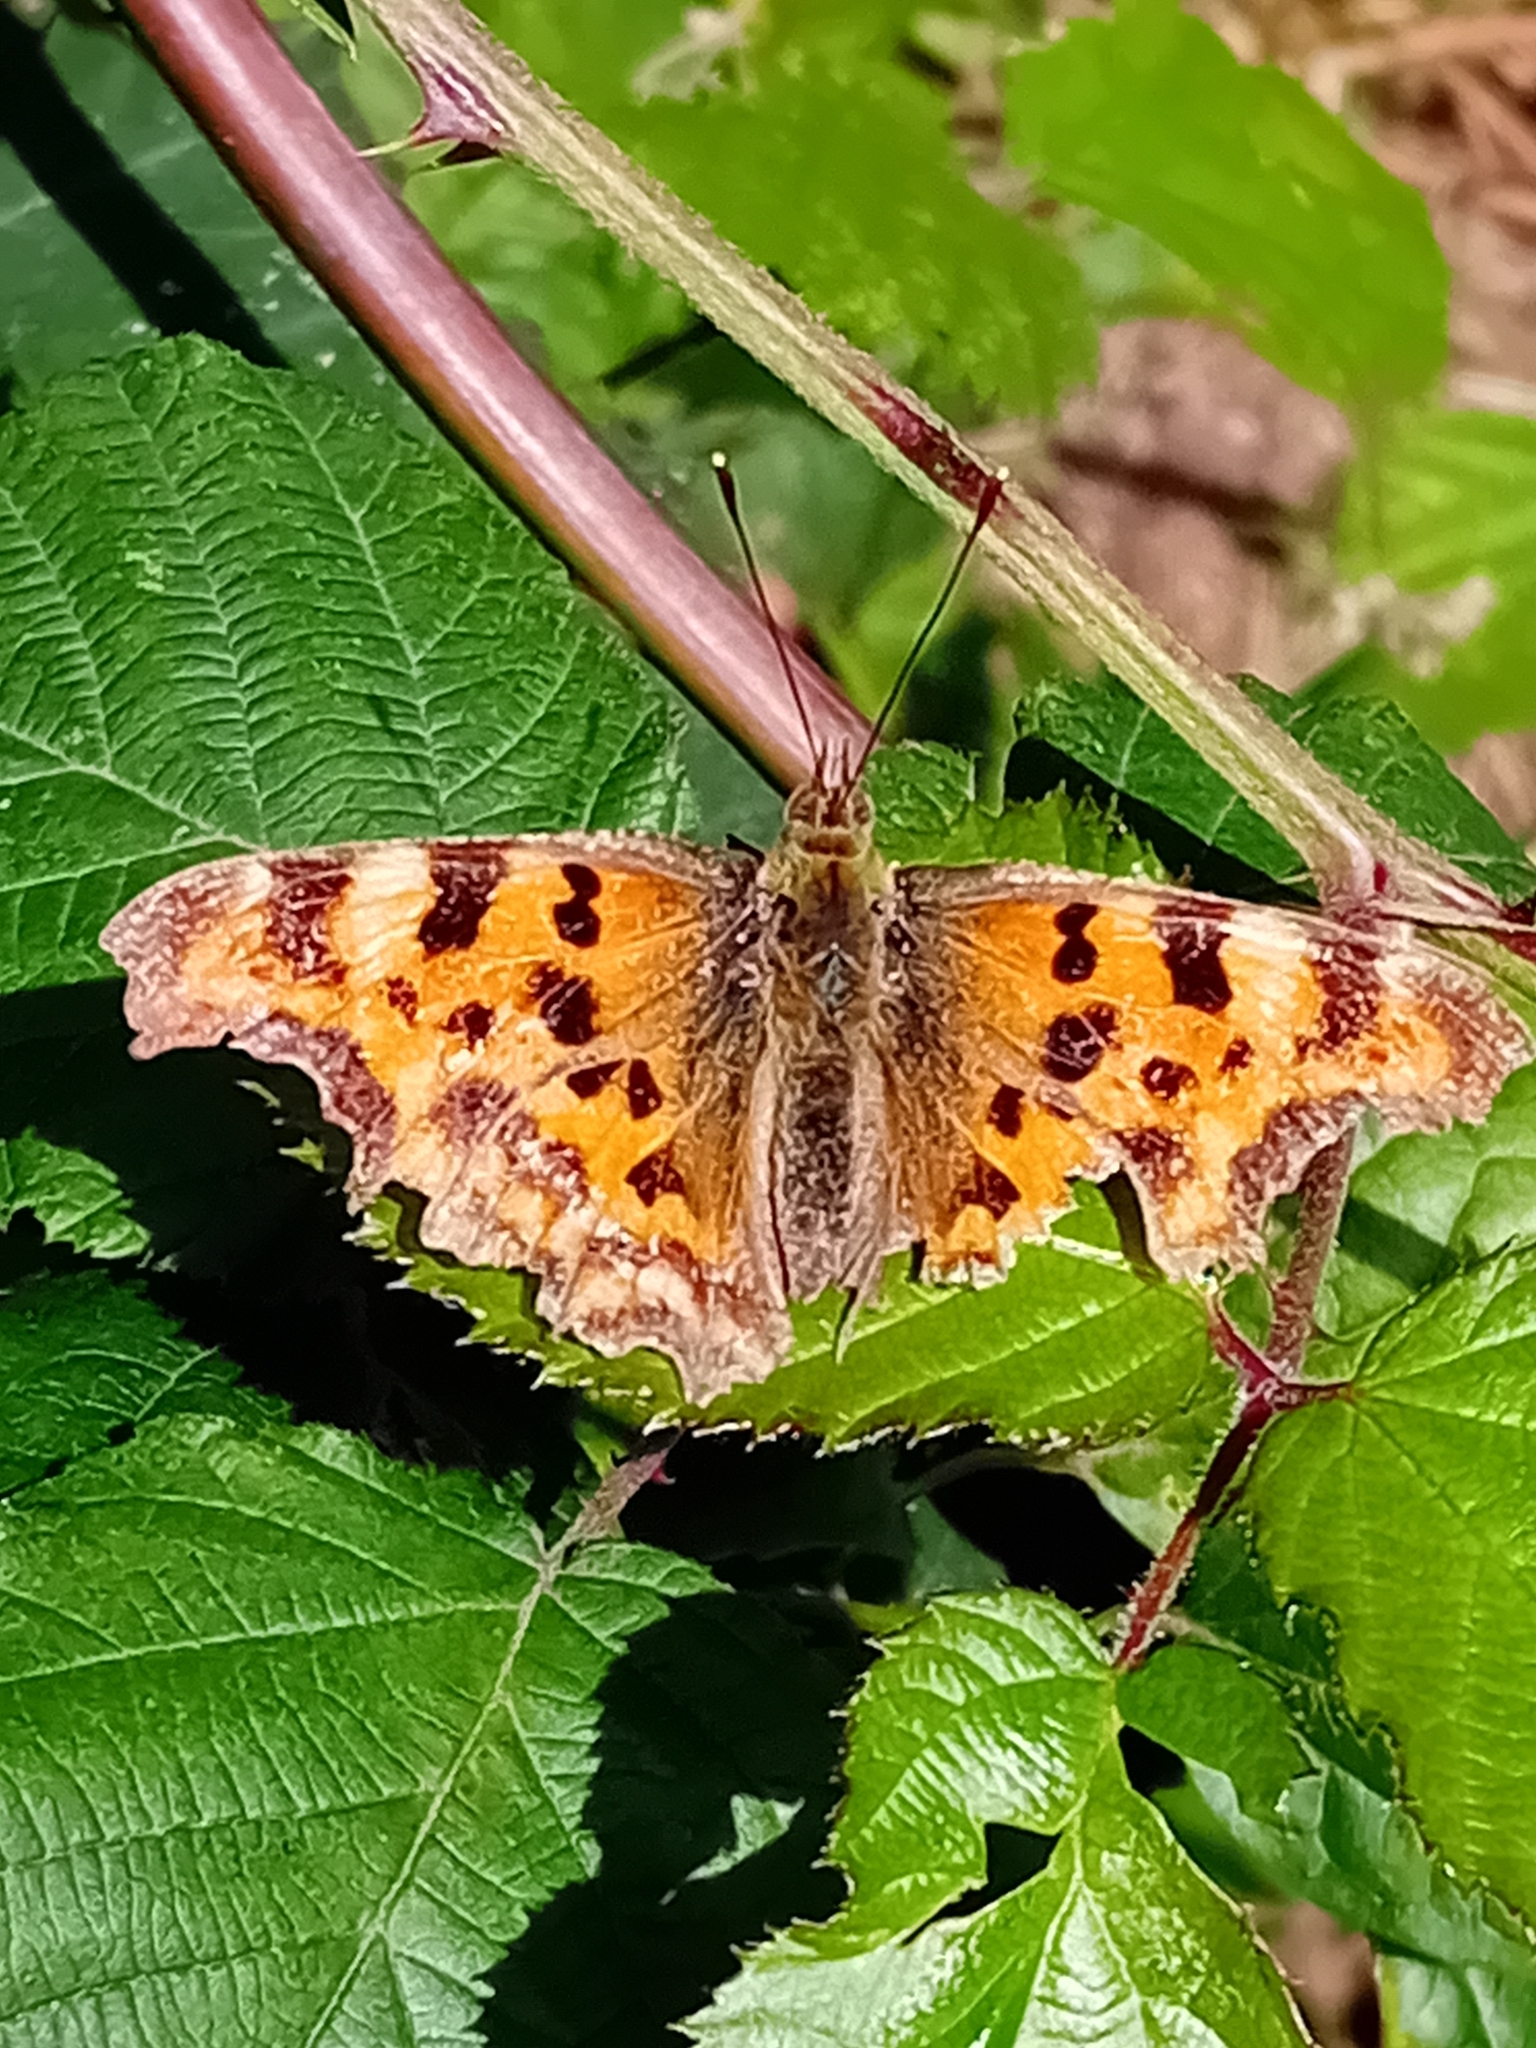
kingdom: Animalia
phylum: Arthropoda
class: Insecta
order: Lepidoptera
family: Nymphalidae
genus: Polygonia
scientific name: Polygonia c-album
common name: Comma
